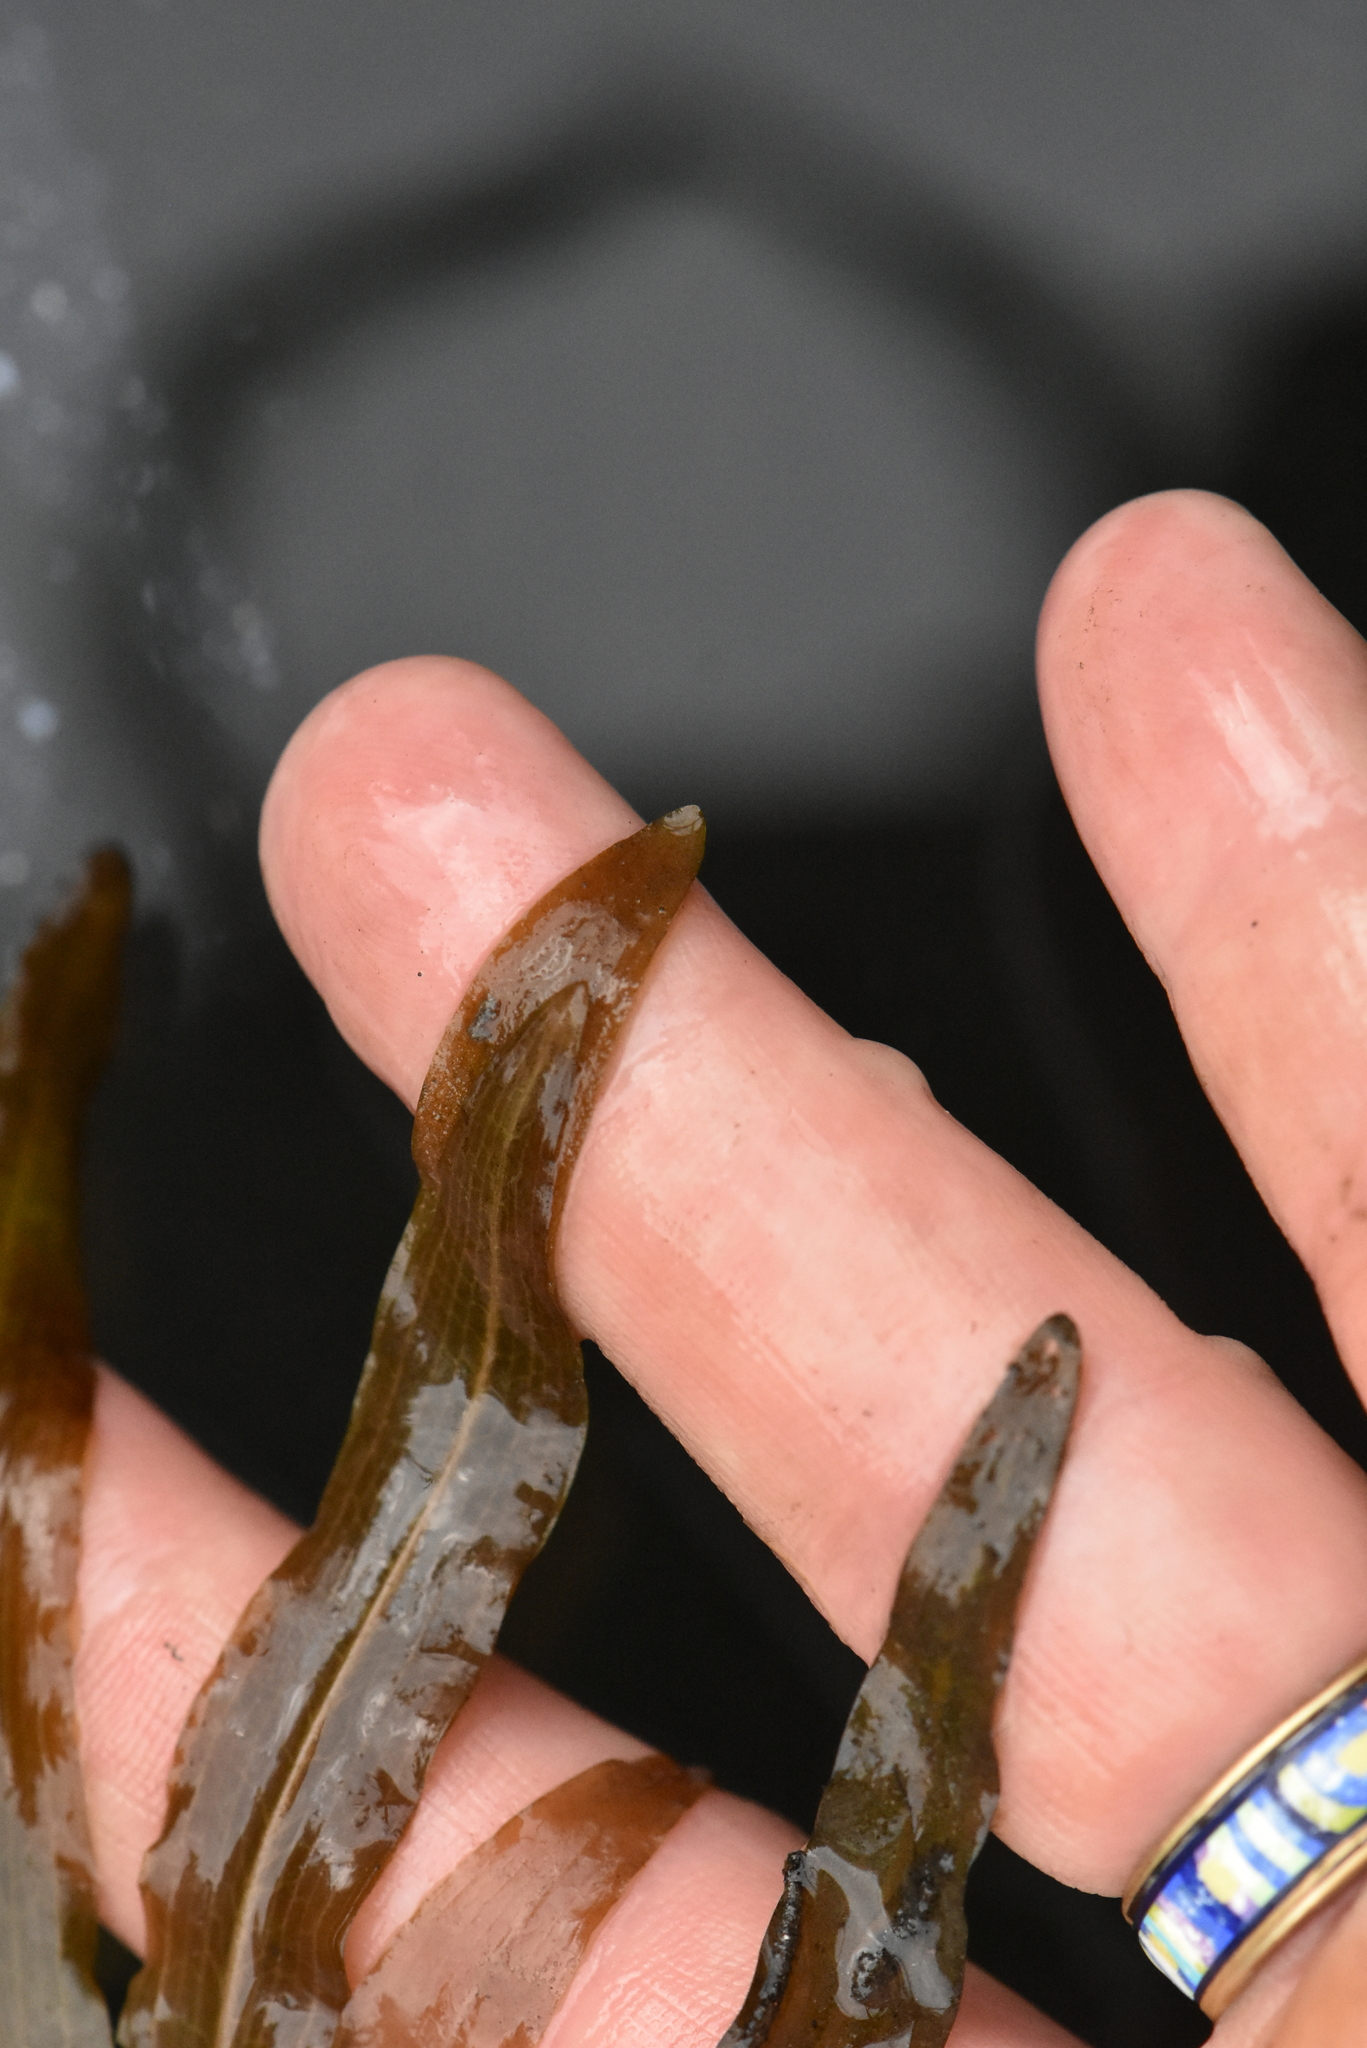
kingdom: Plantae
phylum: Tracheophyta
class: Liliopsida
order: Alismatales
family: Potamogetonaceae
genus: Potamogeton
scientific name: Potamogeton alpinus
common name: Red pondweed
